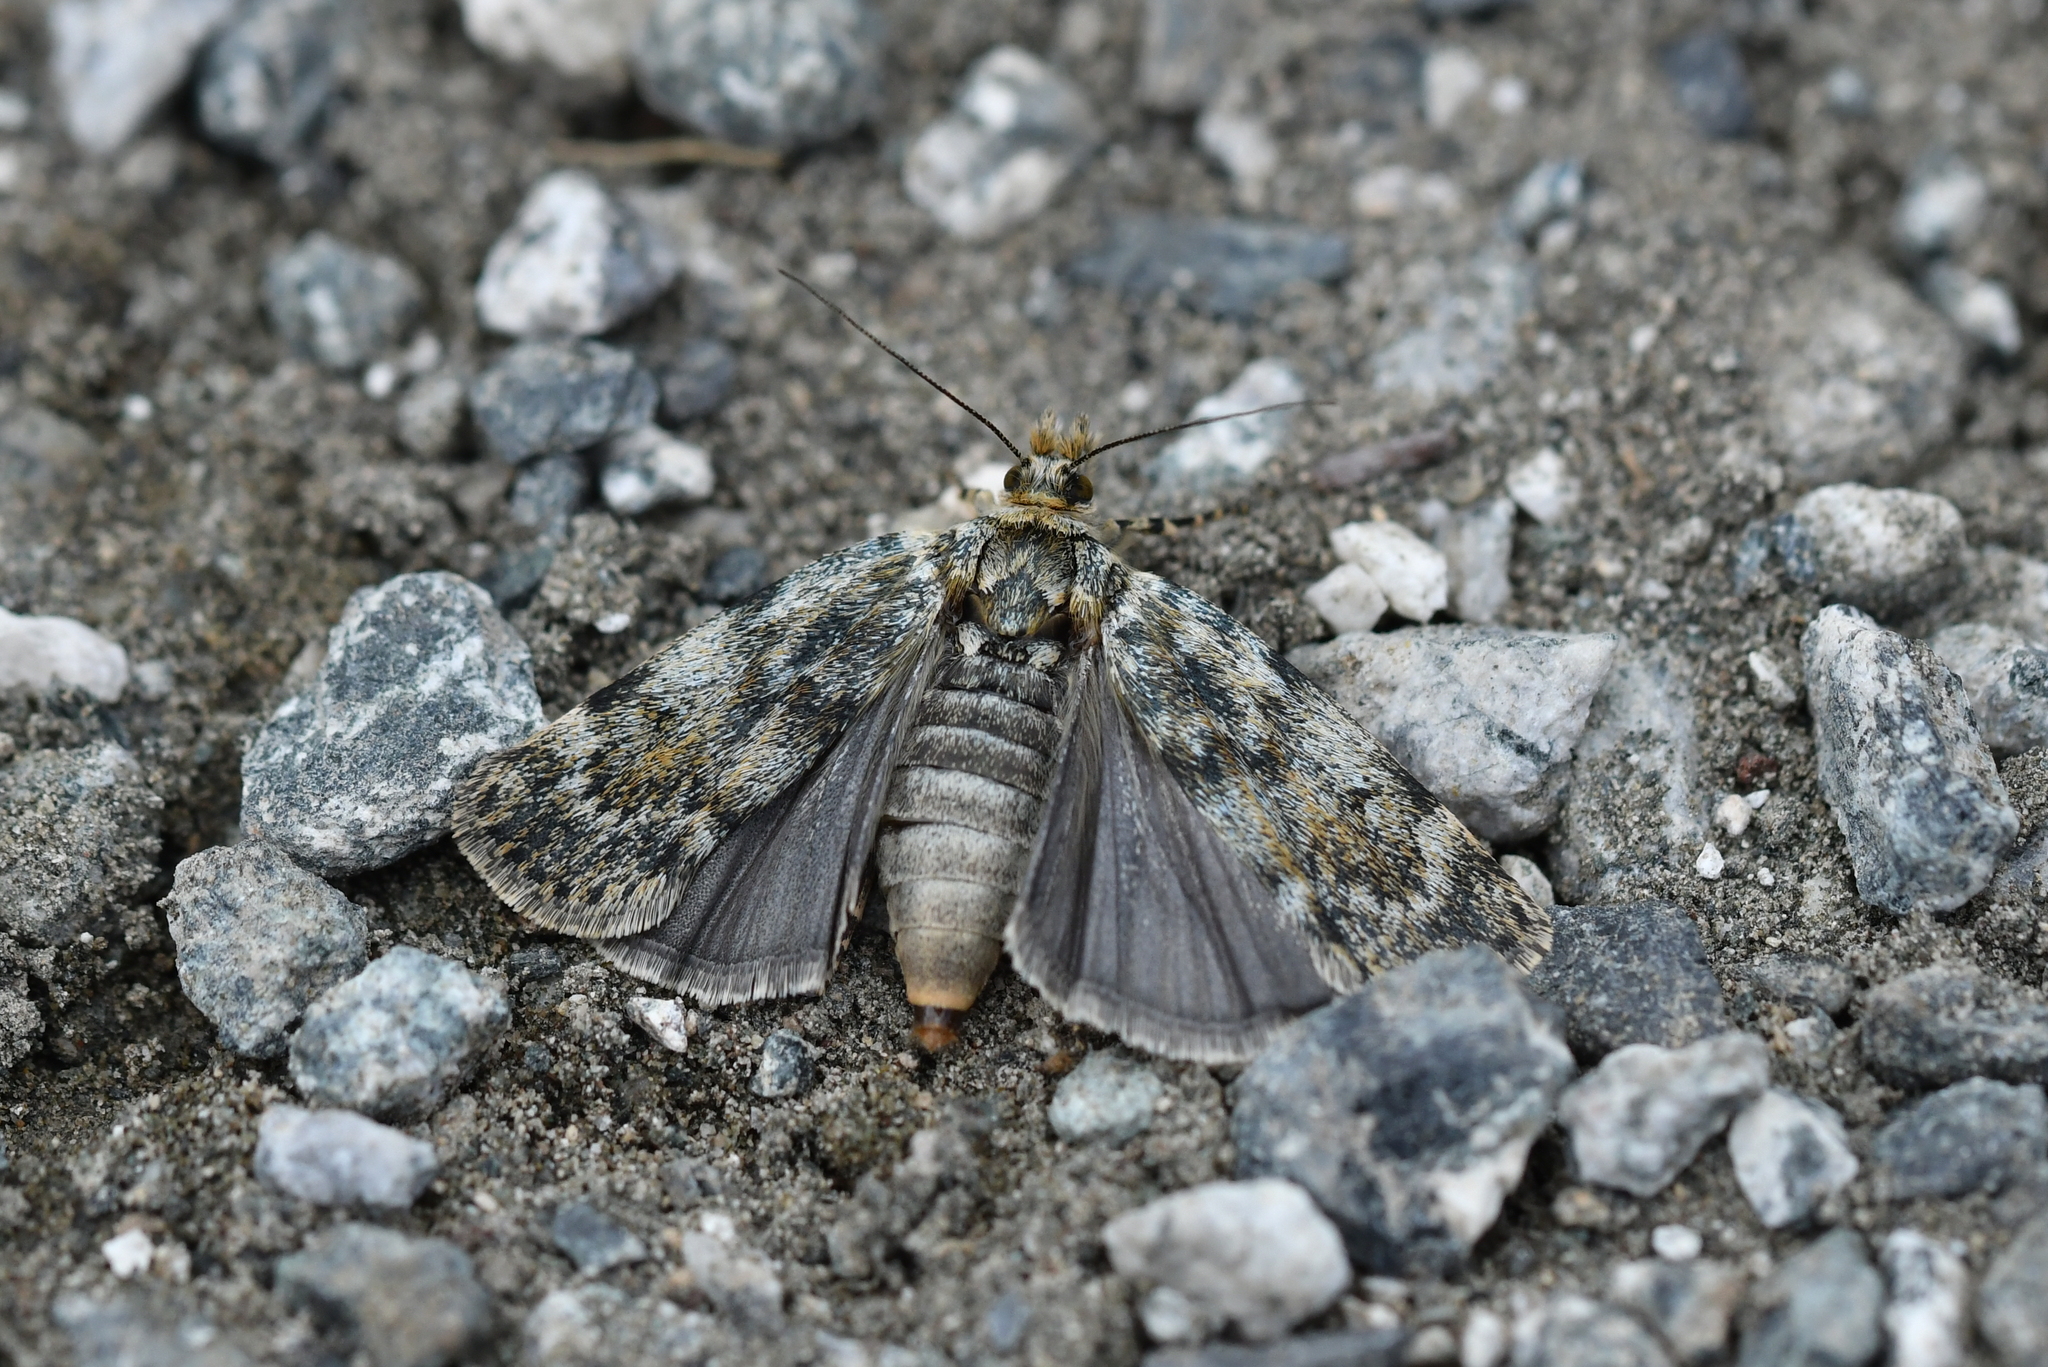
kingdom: Animalia
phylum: Arthropoda
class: Insecta
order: Lepidoptera
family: Crambidae
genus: Tawhitia
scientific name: Tawhitia glaucophanes
